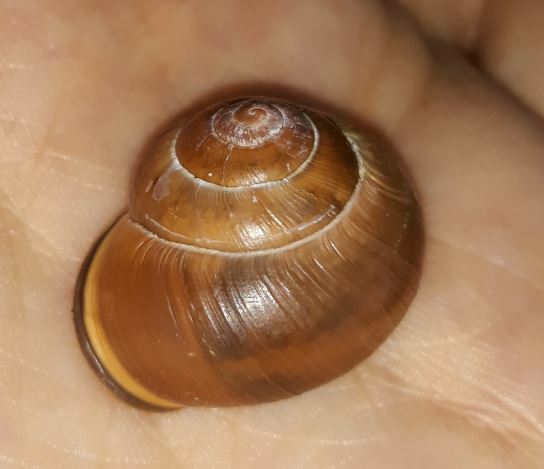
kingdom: Animalia
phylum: Mollusca
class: Gastropoda
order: Stylommatophora
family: Helicidae
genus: Cepaea
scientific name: Cepaea nemoralis
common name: Grovesnail
